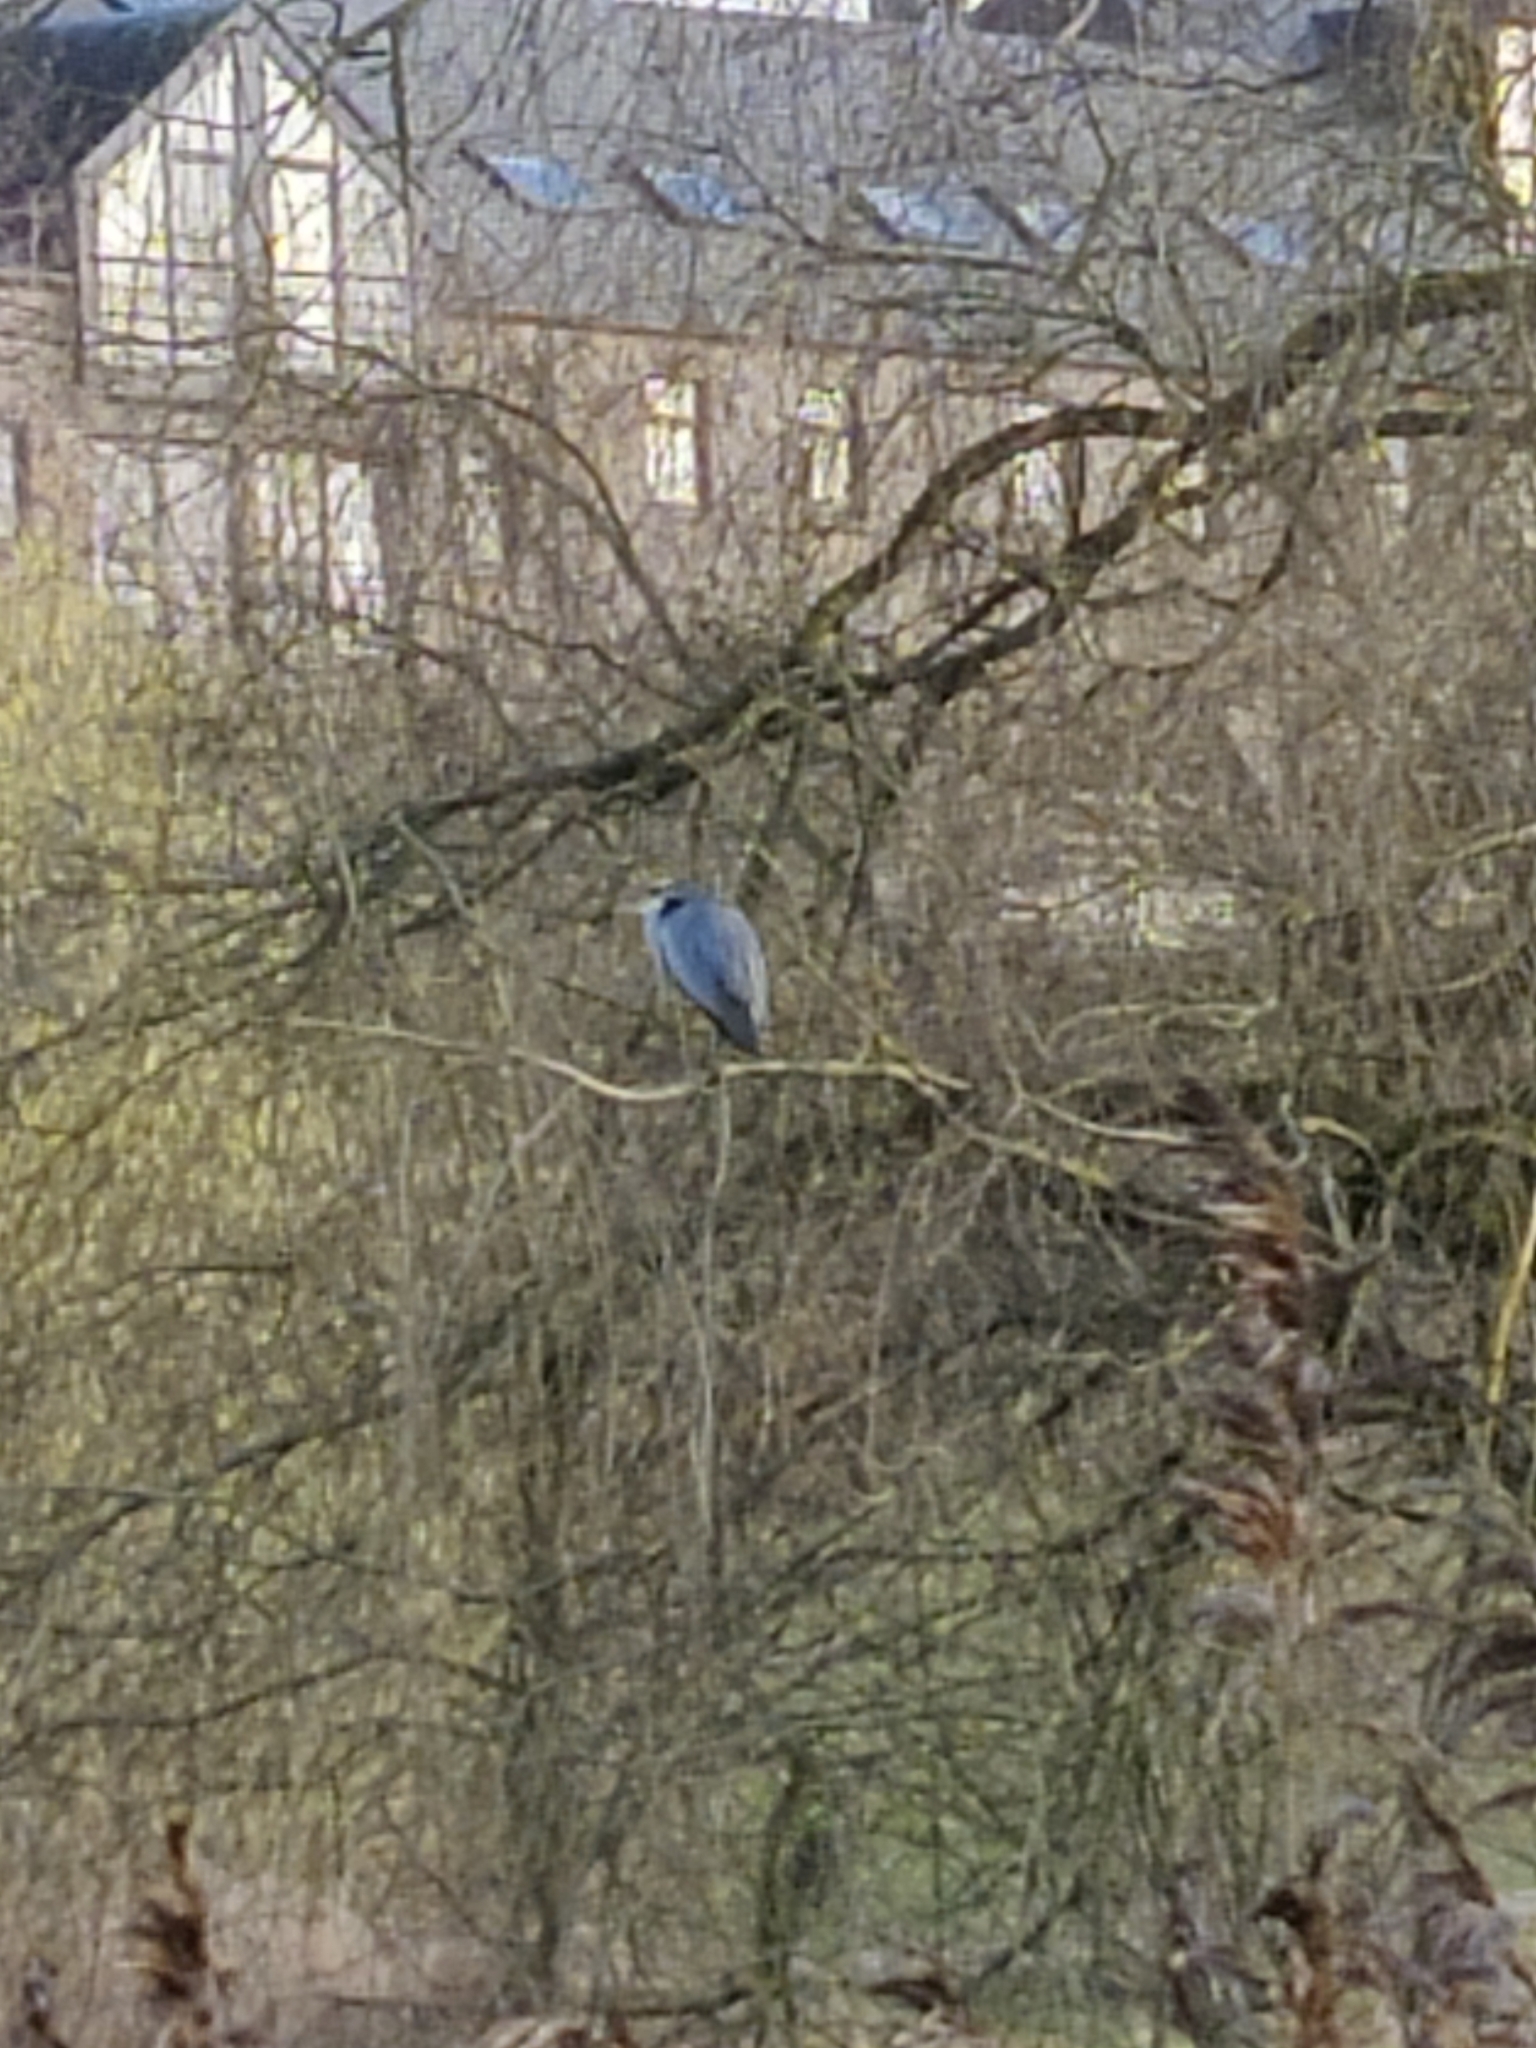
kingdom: Animalia
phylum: Chordata
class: Aves
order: Pelecaniformes
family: Ardeidae
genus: Ardea
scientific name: Ardea cinerea
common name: Grey heron
